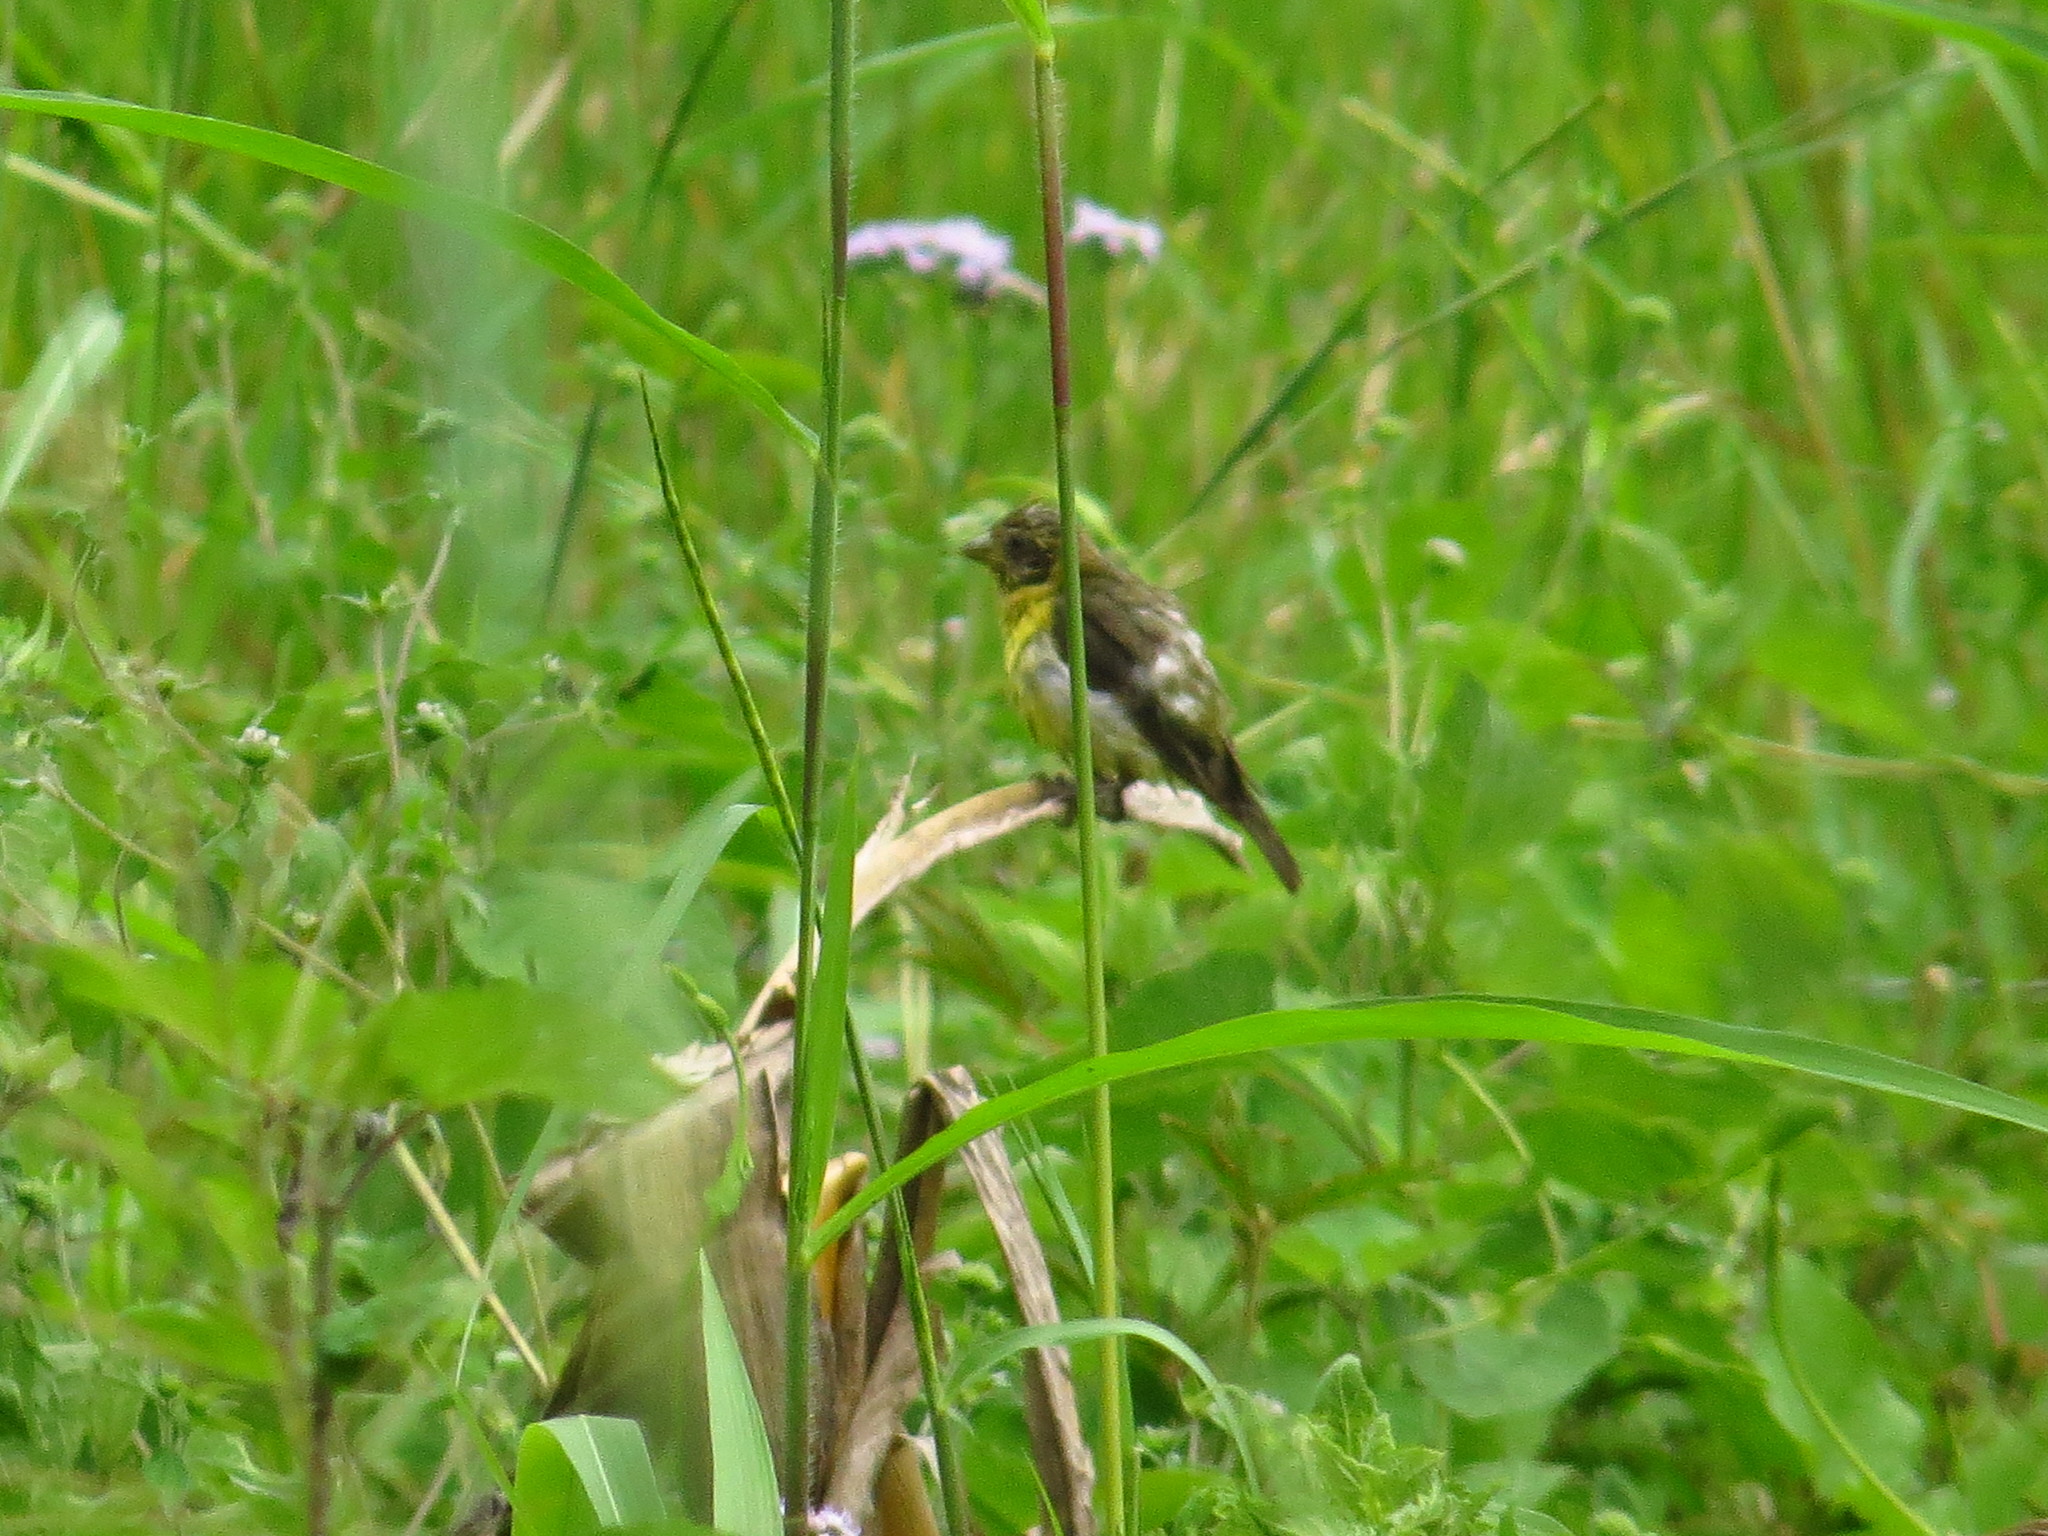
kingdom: Animalia
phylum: Chordata
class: Aves
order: Passeriformes
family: Fringillidae
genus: Spinus
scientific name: Spinus psaltria
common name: Lesser goldfinch
